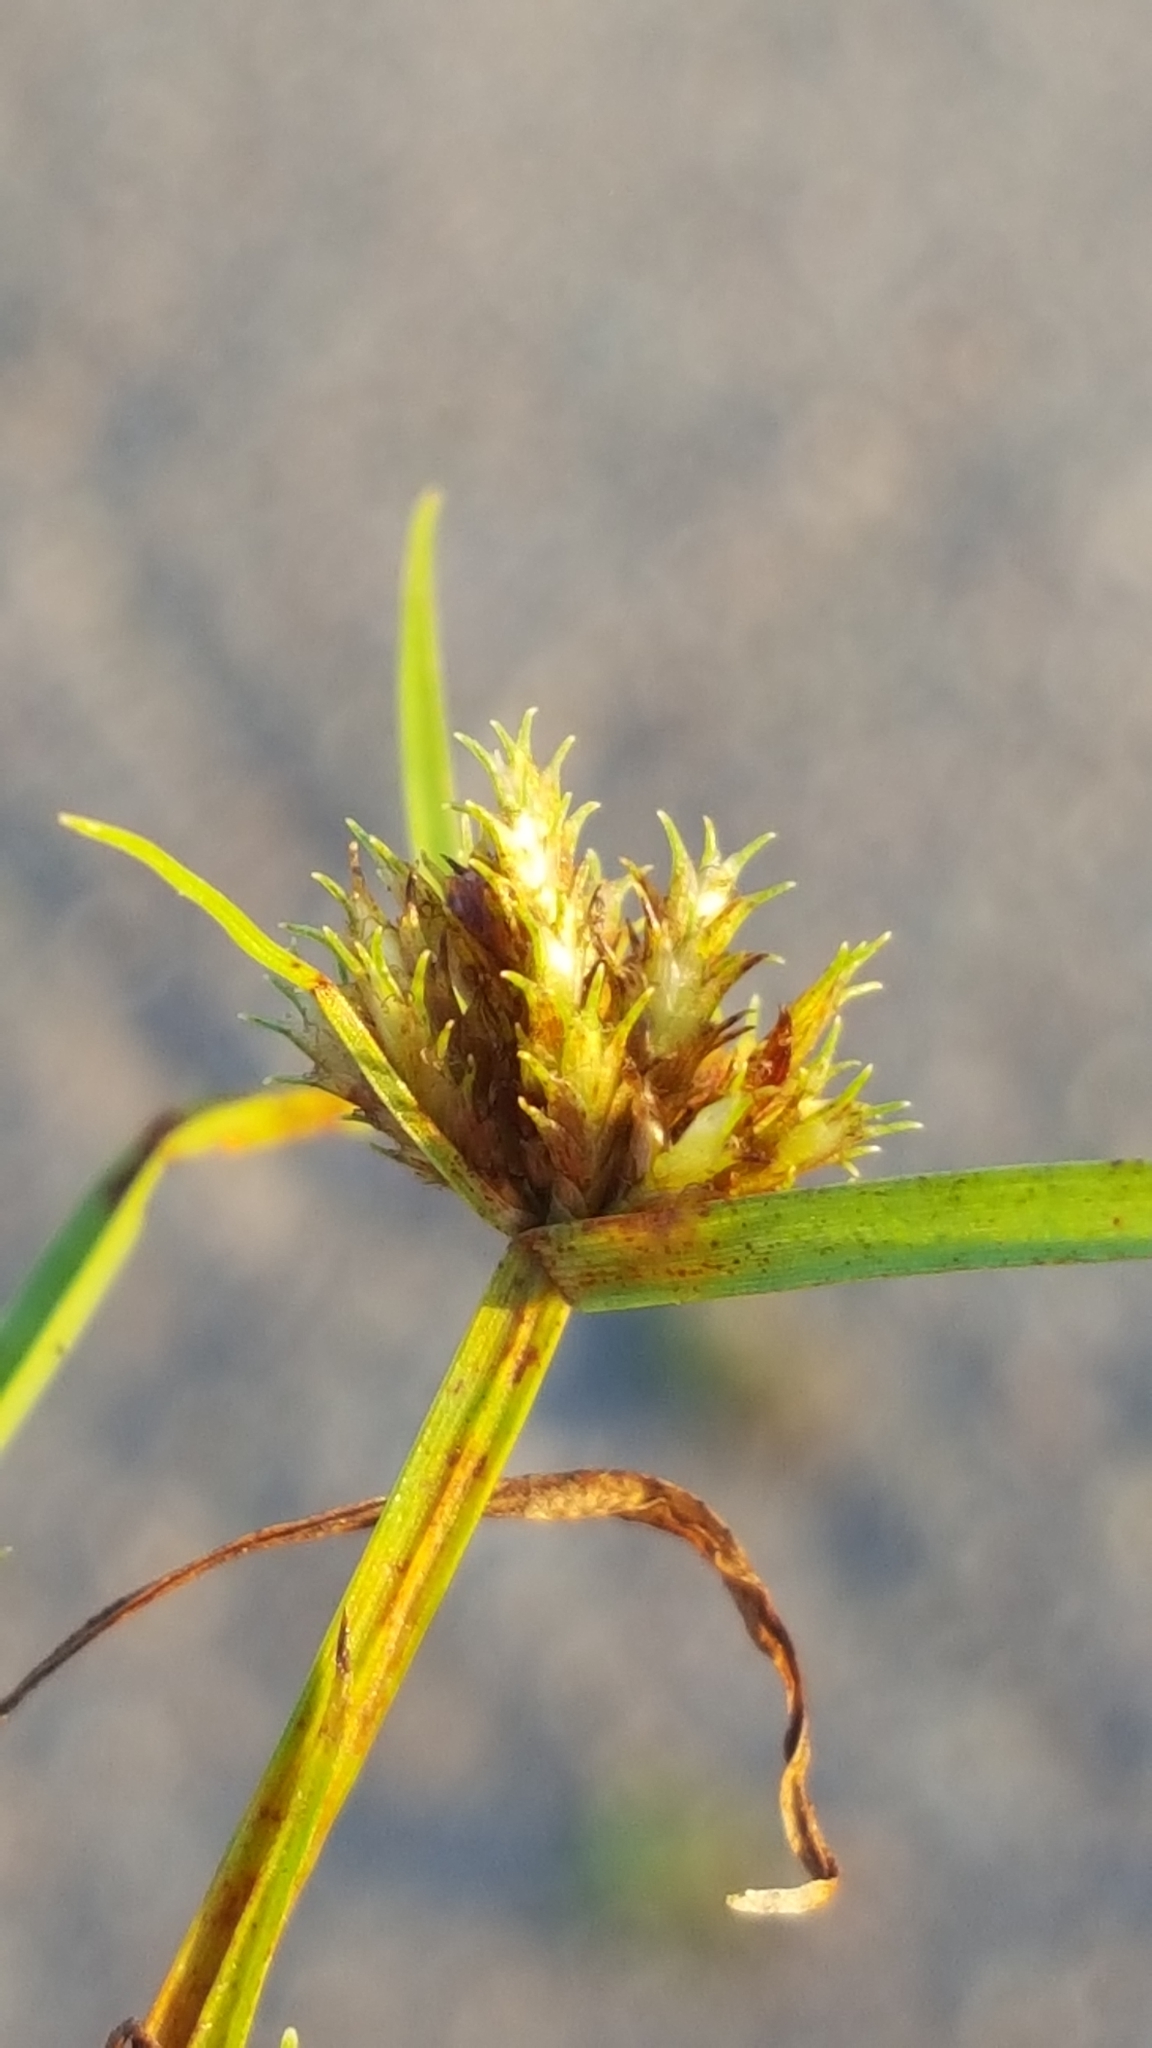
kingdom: Plantae
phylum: Tracheophyta
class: Liliopsida
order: Poales
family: Cyperaceae
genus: Cyperus
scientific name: Cyperus squarrosus
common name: Awned cyperus
